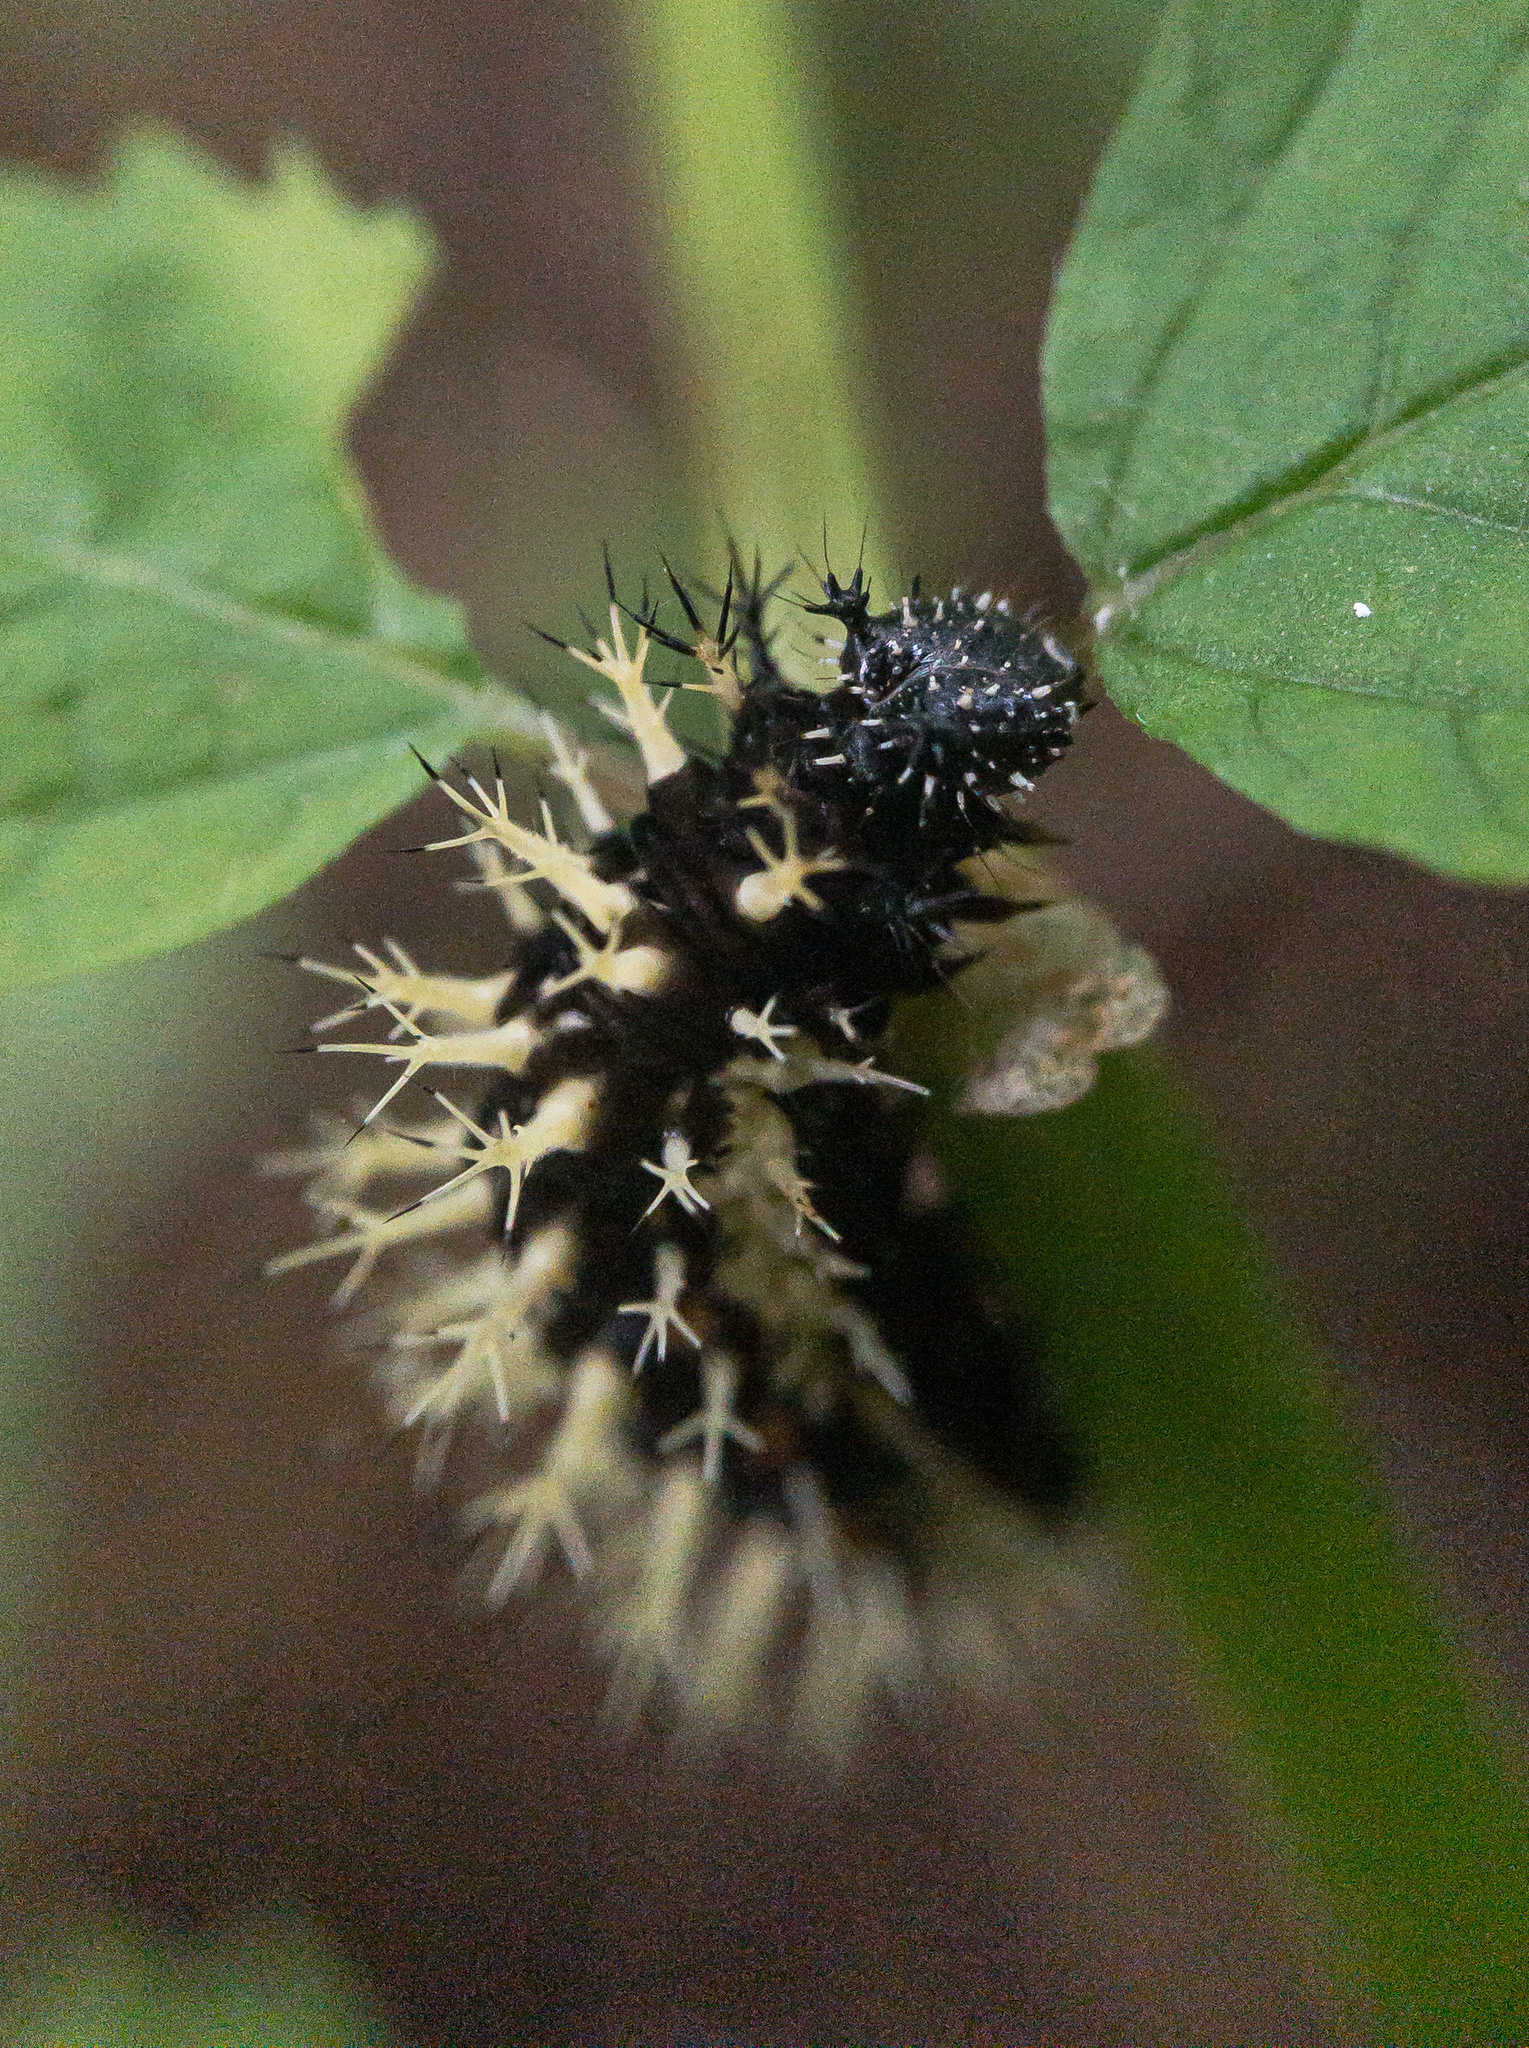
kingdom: Animalia
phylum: Arthropoda
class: Insecta
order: Lepidoptera
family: Nymphalidae
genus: Polygonia
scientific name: Polygonia comma
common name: Eastern comma
